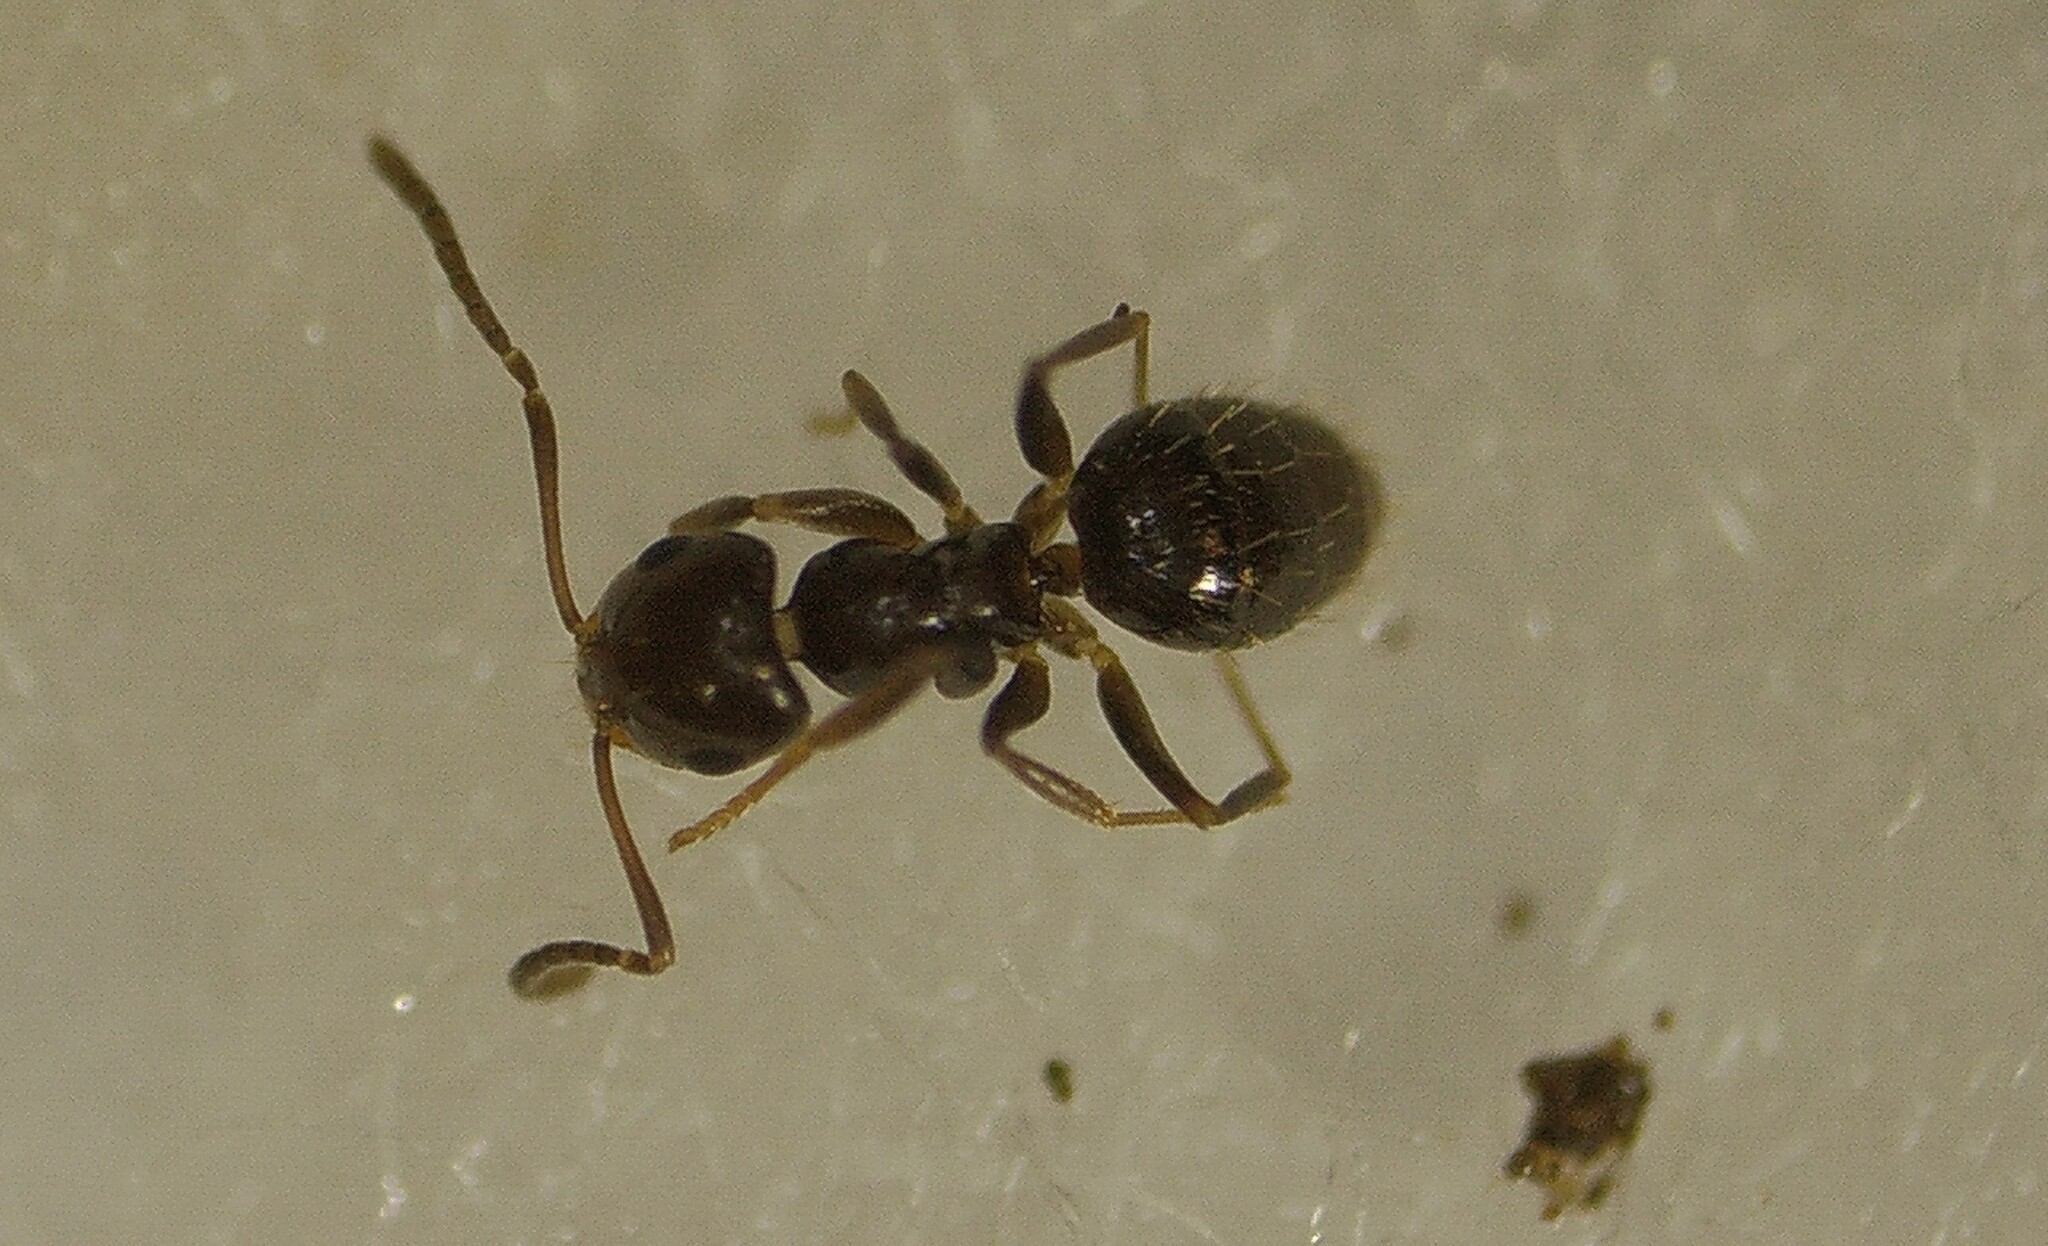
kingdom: Animalia
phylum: Arthropoda
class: Insecta
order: Hymenoptera
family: Formicidae
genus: Brachymyrmex
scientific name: Brachymyrmex patagonicus
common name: Dark rover ant
